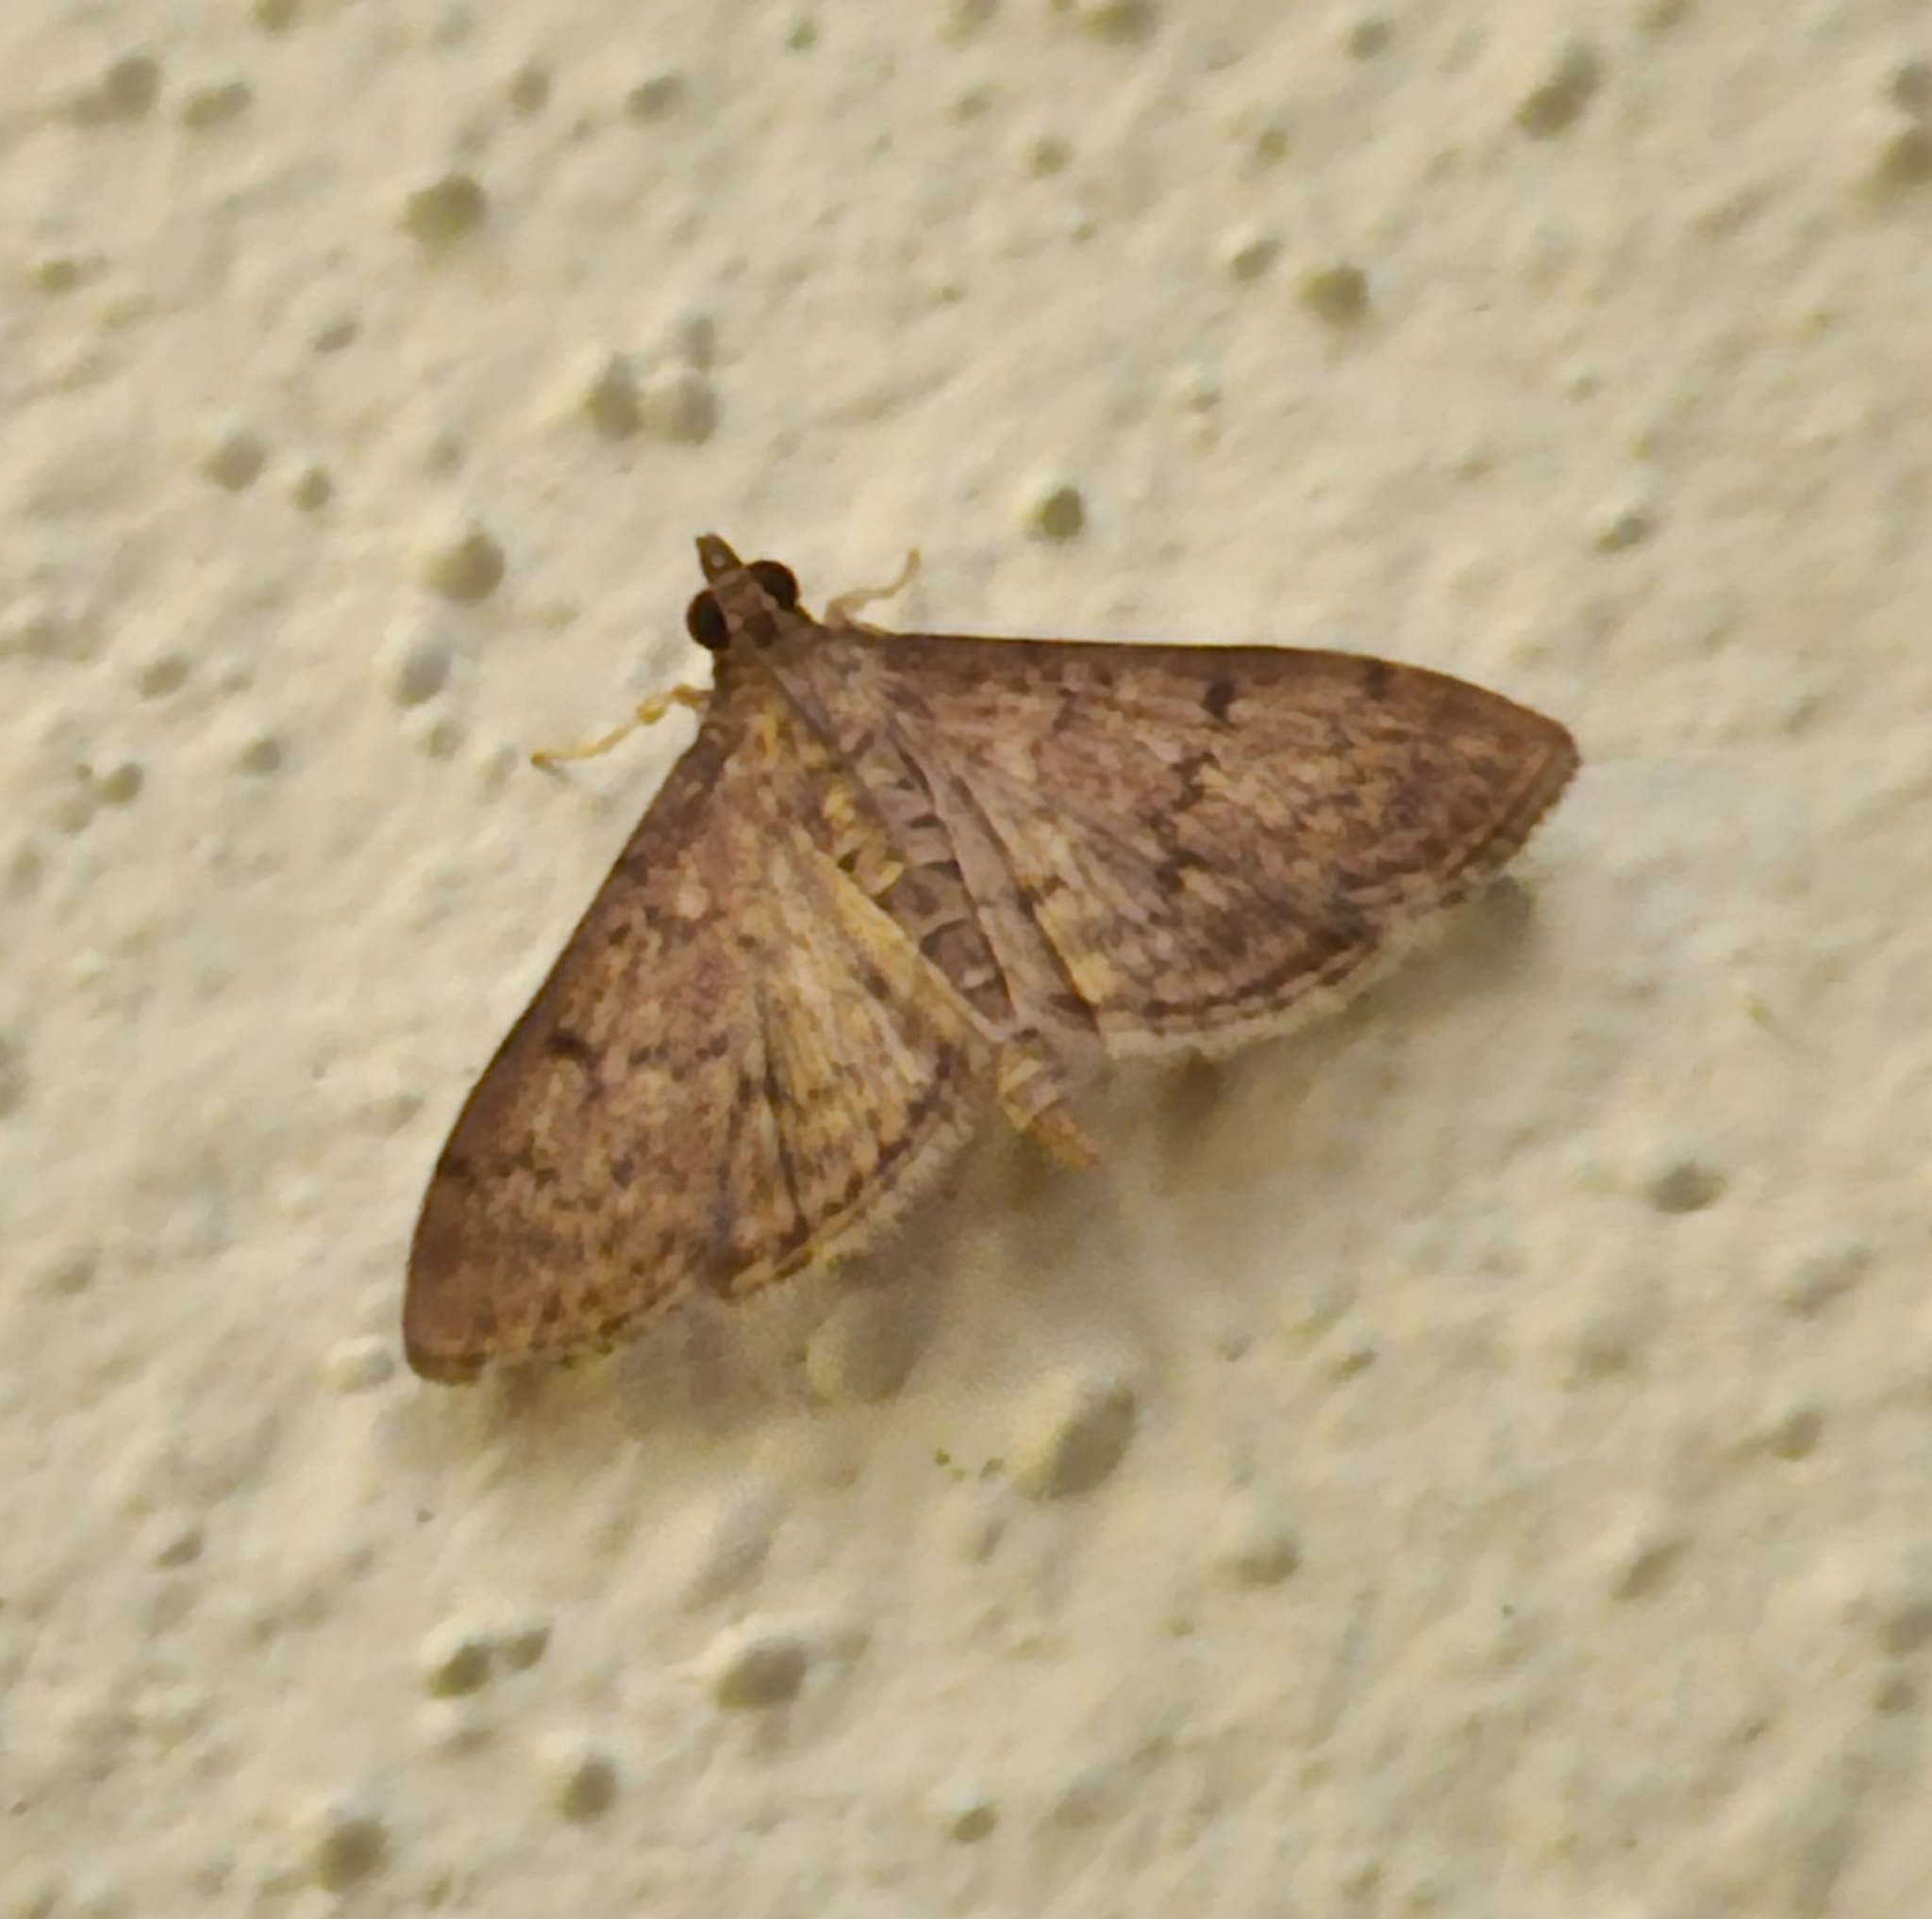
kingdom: Animalia
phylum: Arthropoda
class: Insecta
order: Lepidoptera
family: Crambidae
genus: Herpetogramma
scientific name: Herpetogramma phaeopteralis
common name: Dusky herpetogramma moth
